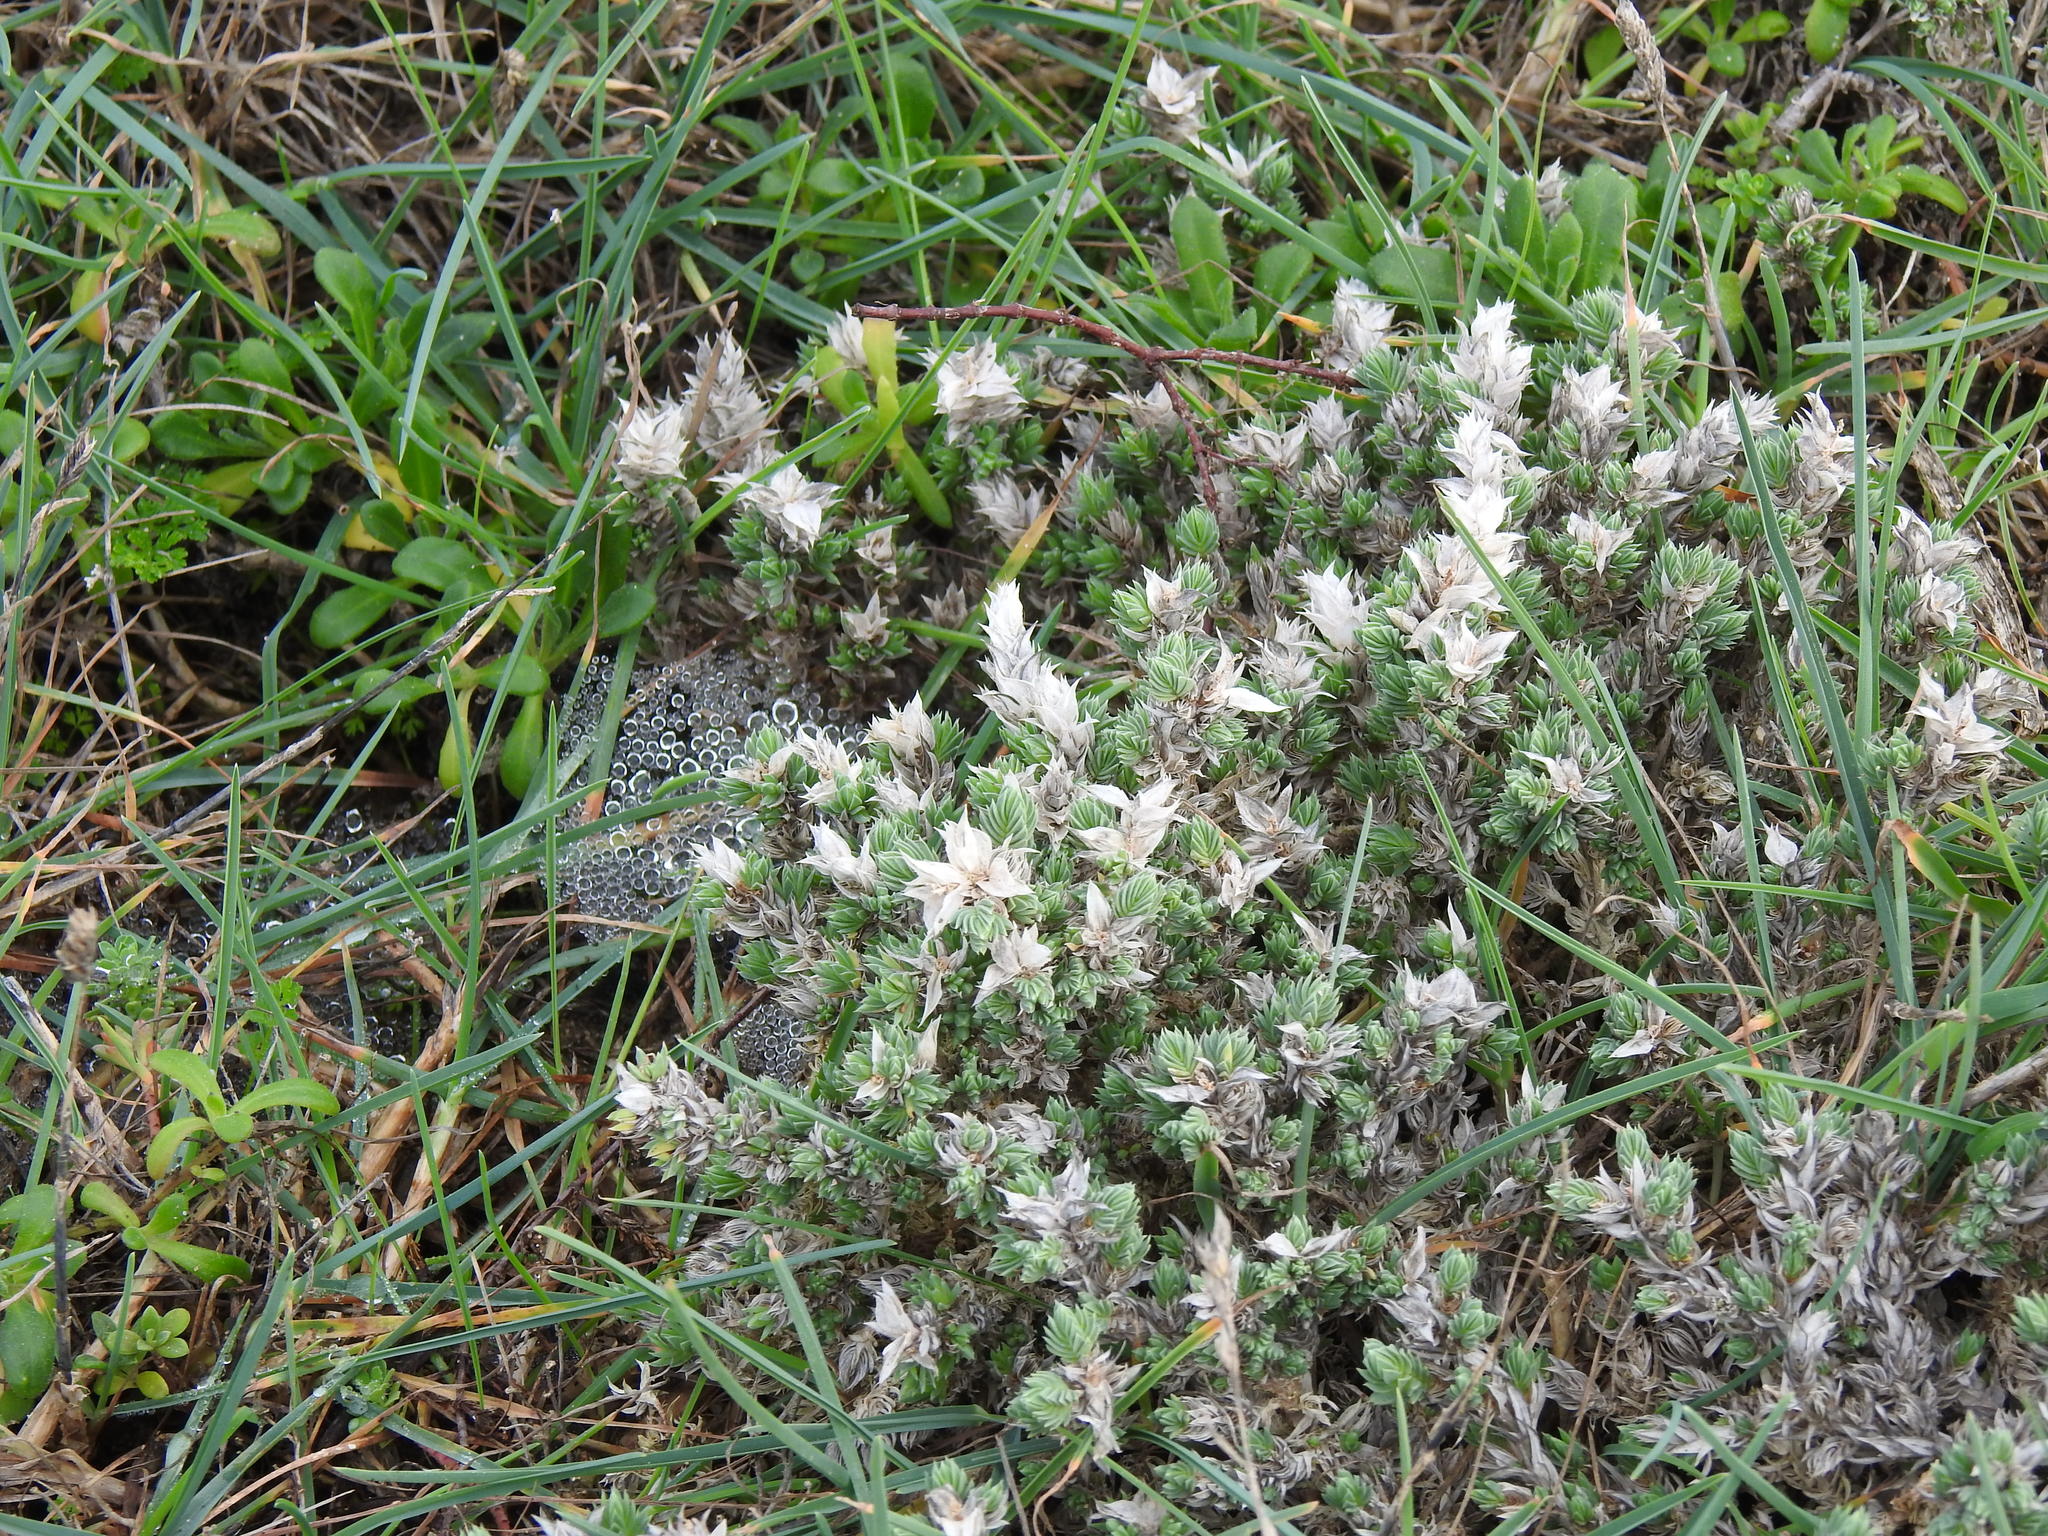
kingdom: Plantae
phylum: Tracheophyta
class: Magnoliopsida
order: Gentianales
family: Rubiaceae
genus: Crucianella
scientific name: Crucianella maritima
